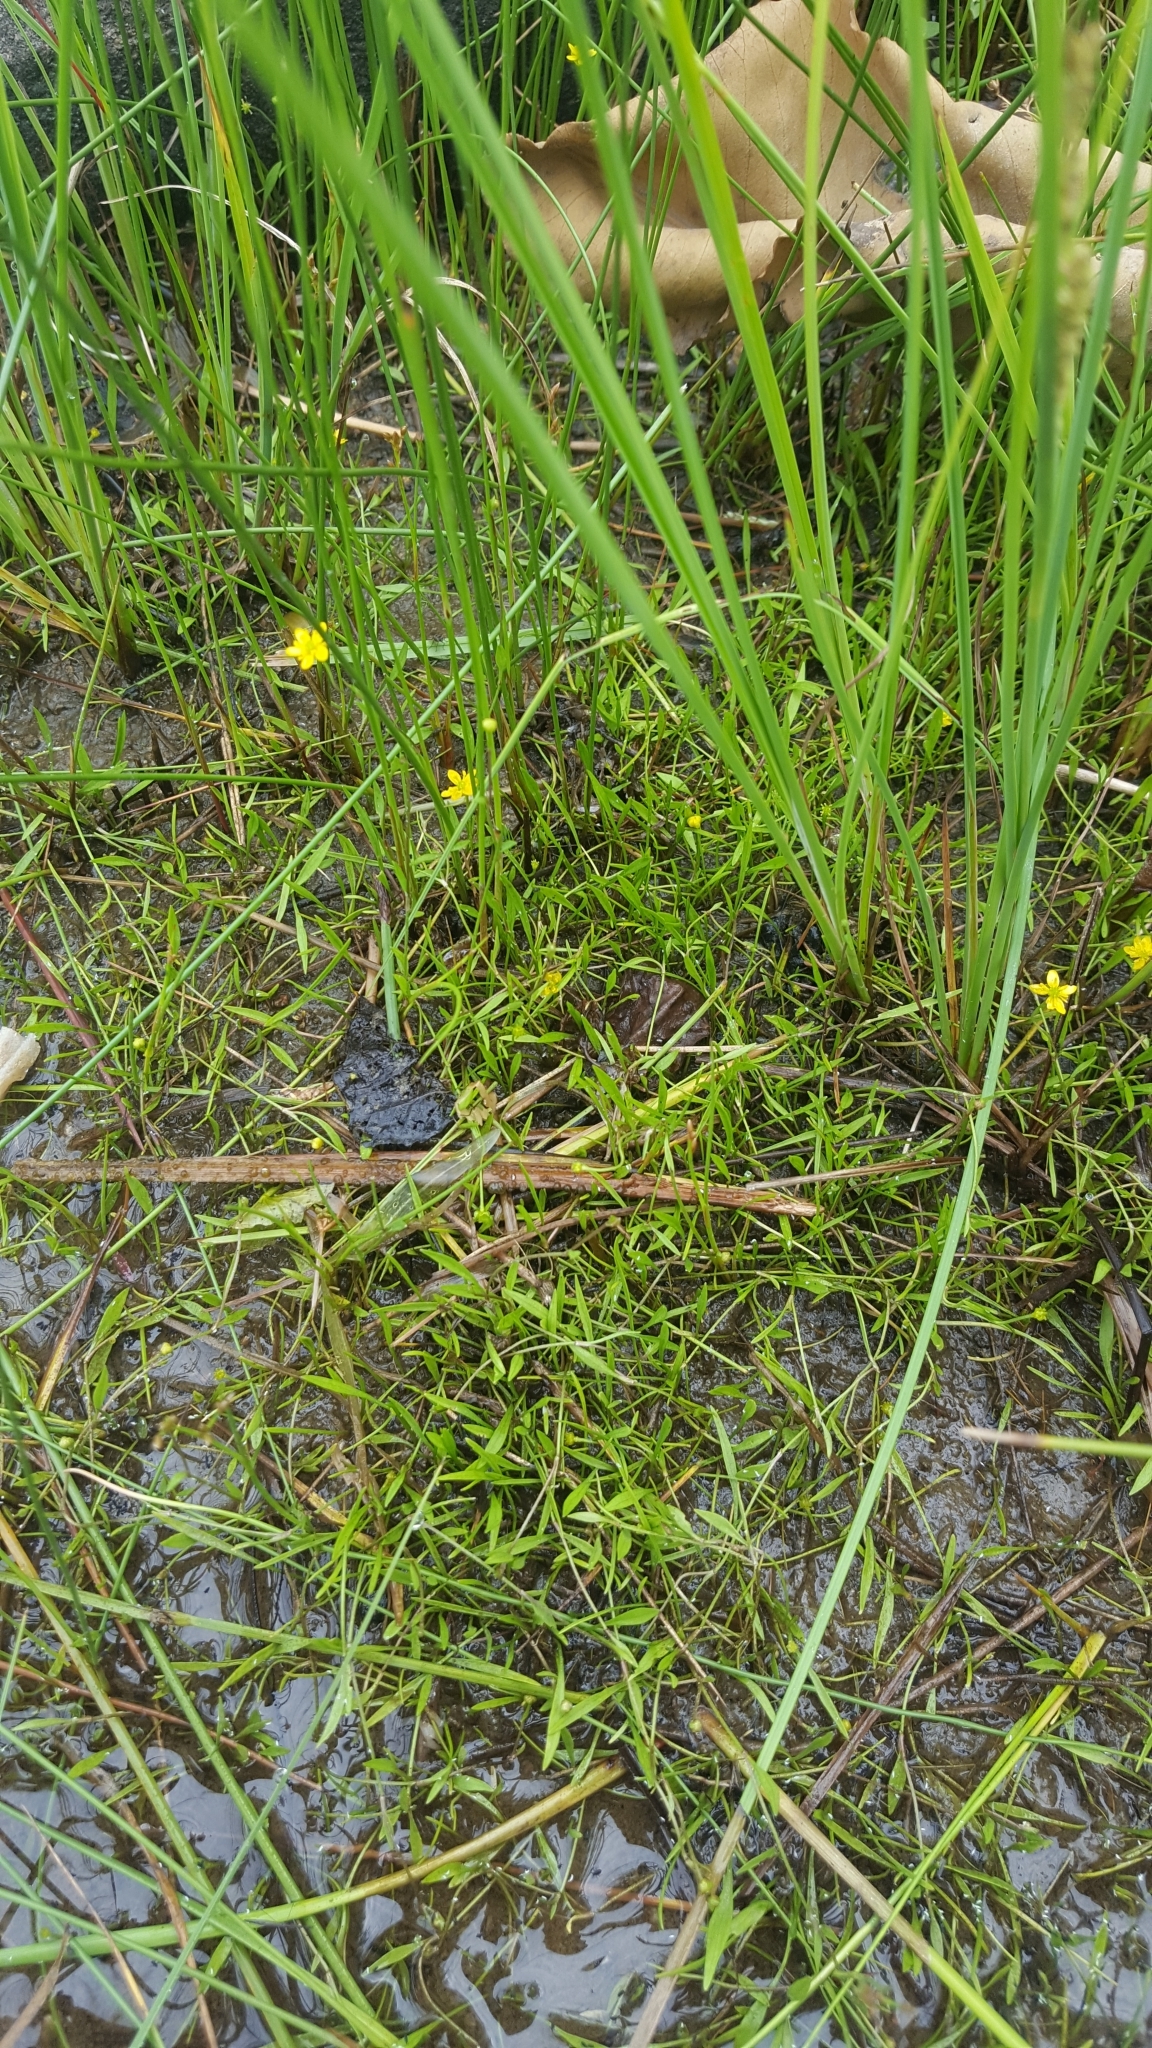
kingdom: Plantae
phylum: Tracheophyta
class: Magnoliopsida
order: Ranunculales
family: Ranunculaceae
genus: Ranunculus
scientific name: Ranunculus flammula
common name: Lesser spearwort
